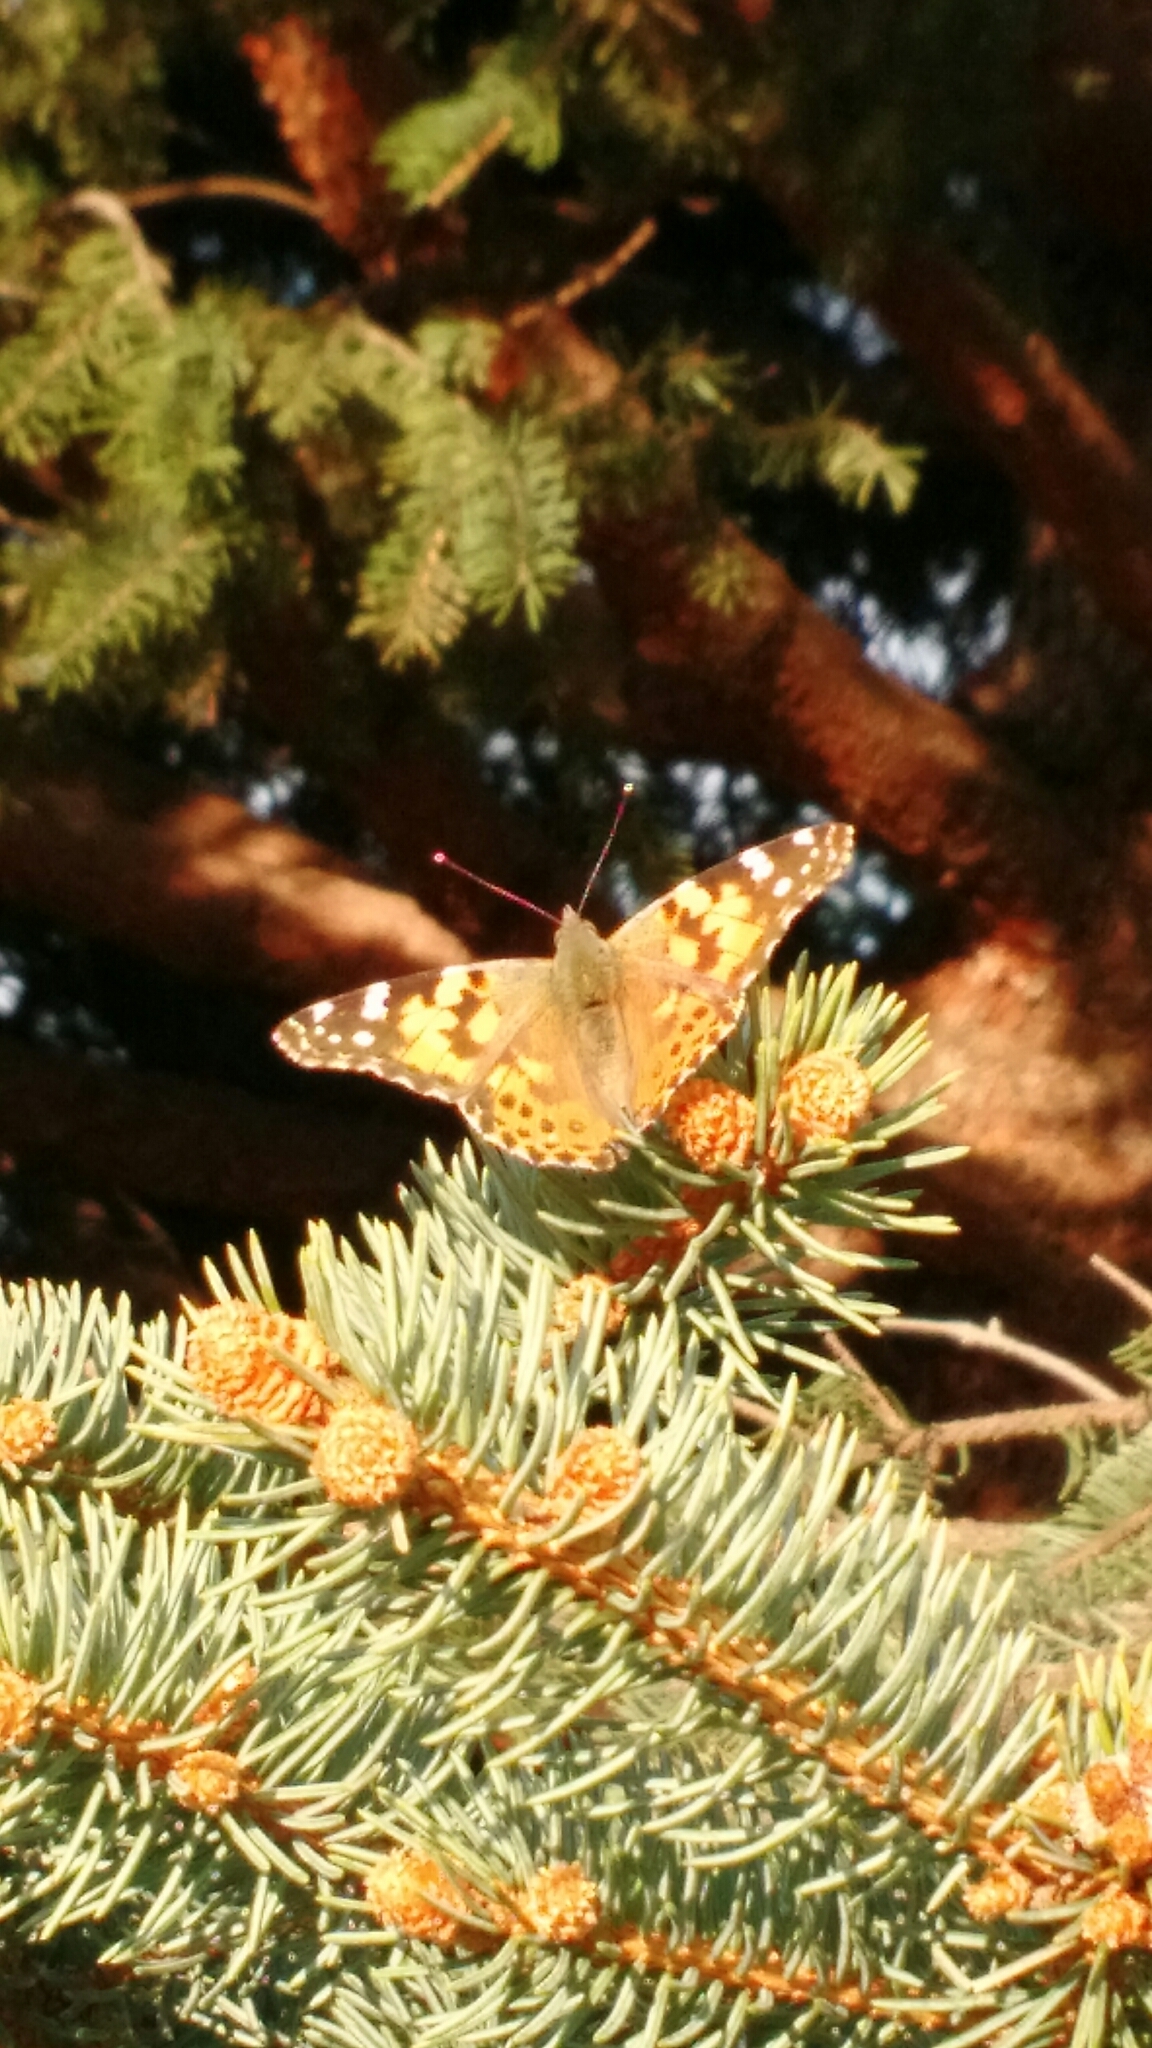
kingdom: Animalia
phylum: Arthropoda
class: Insecta
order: Lepidoptera
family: Nymphalidae
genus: Vanessa
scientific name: Vanessa cardui
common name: Painted lady
